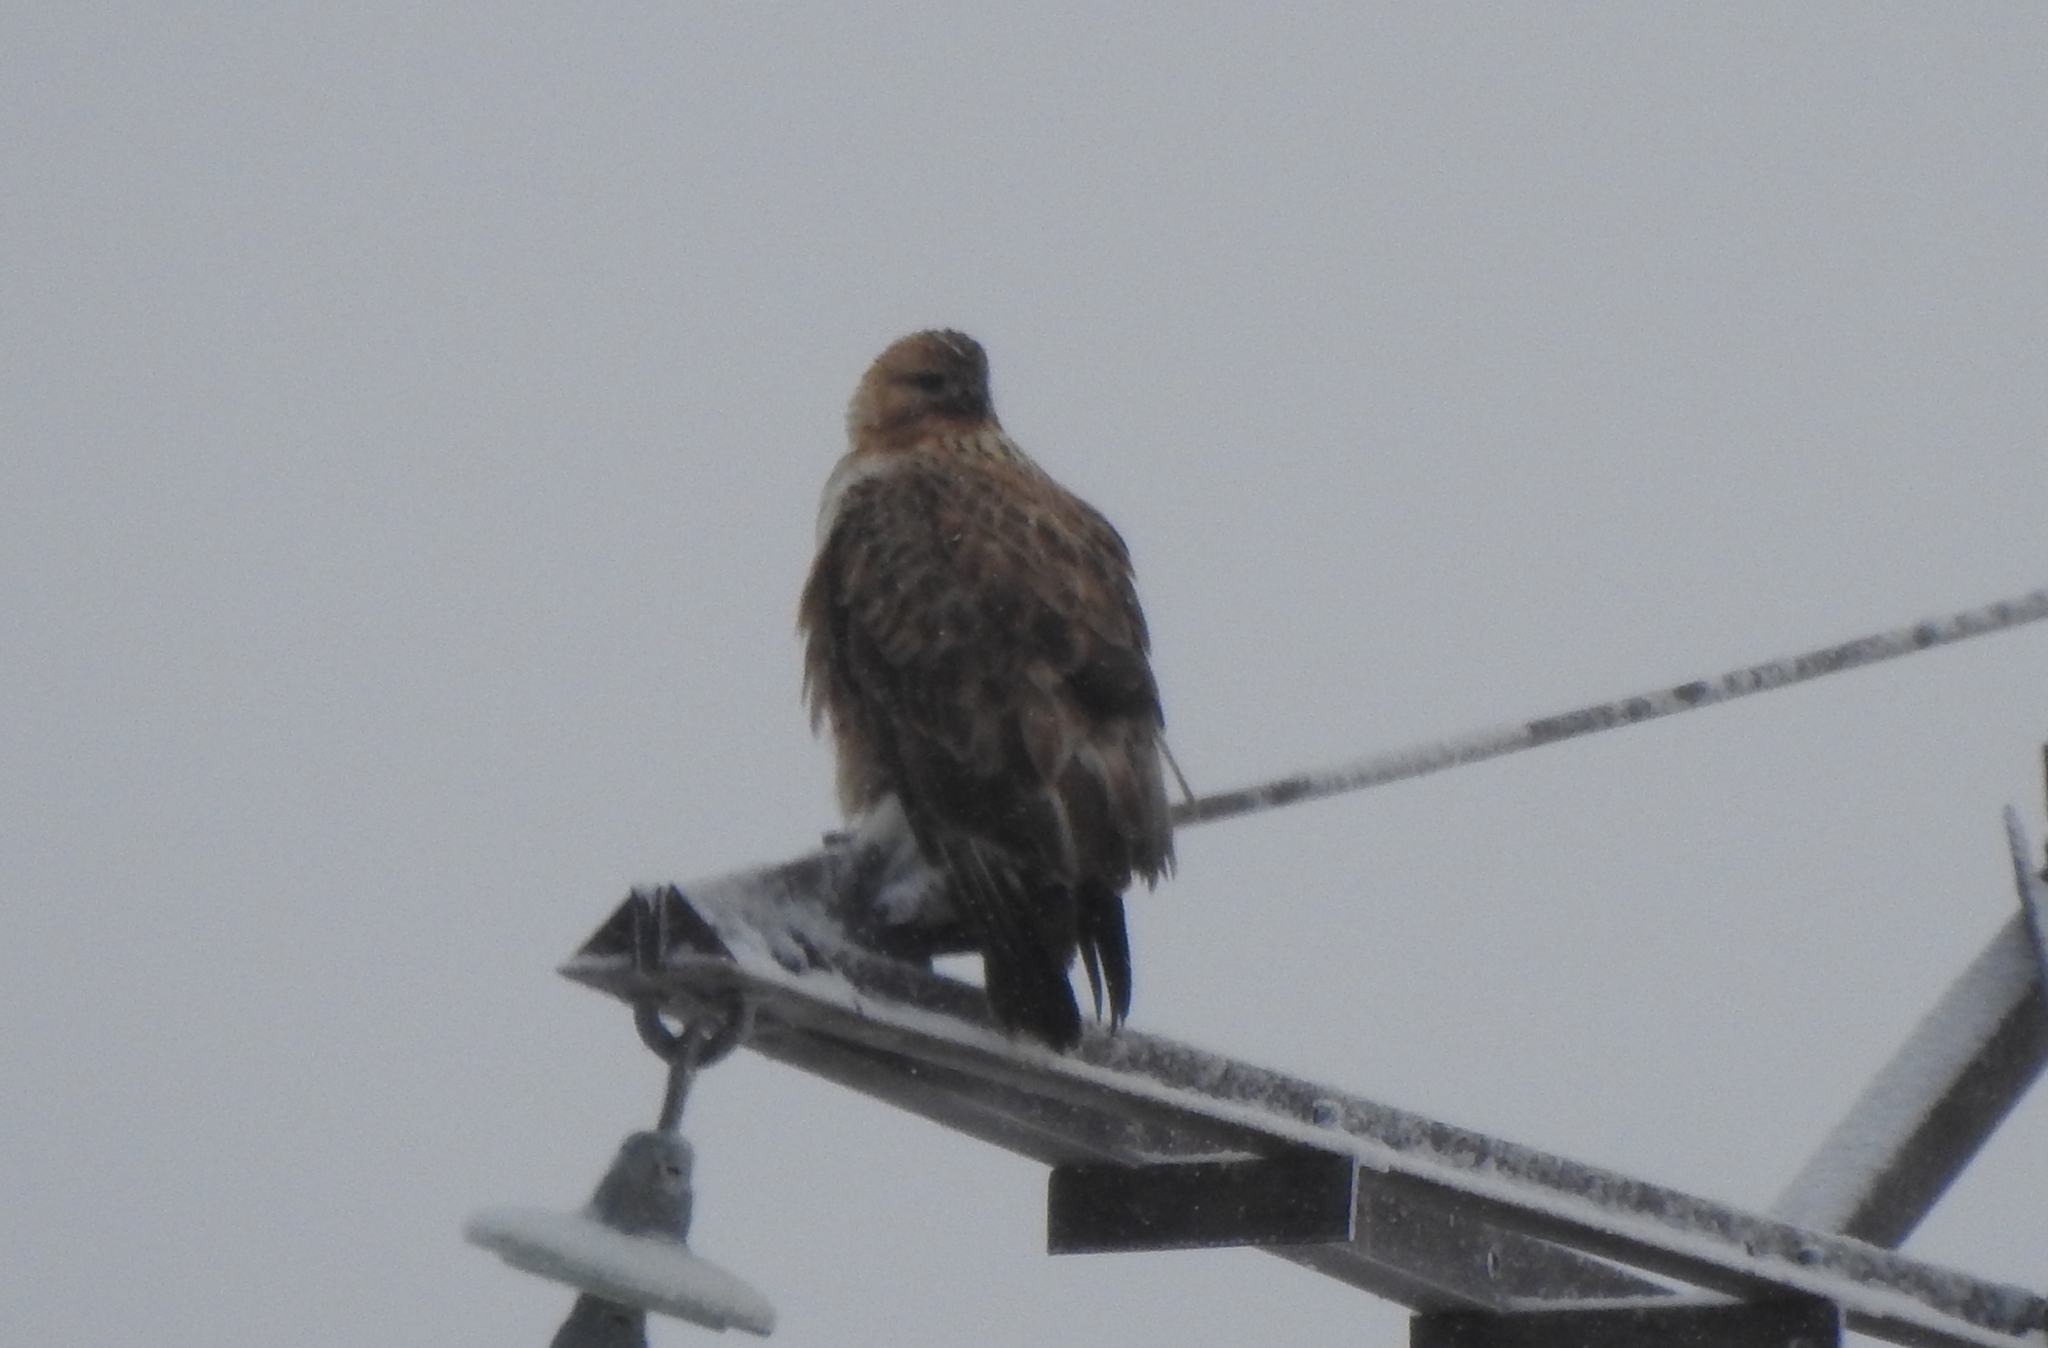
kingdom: Animalia
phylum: Chordata
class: Aves
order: Accipitriformes
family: Accipitridae
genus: Buteo
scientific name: Buteo hemilasius
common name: Upland buzzard
